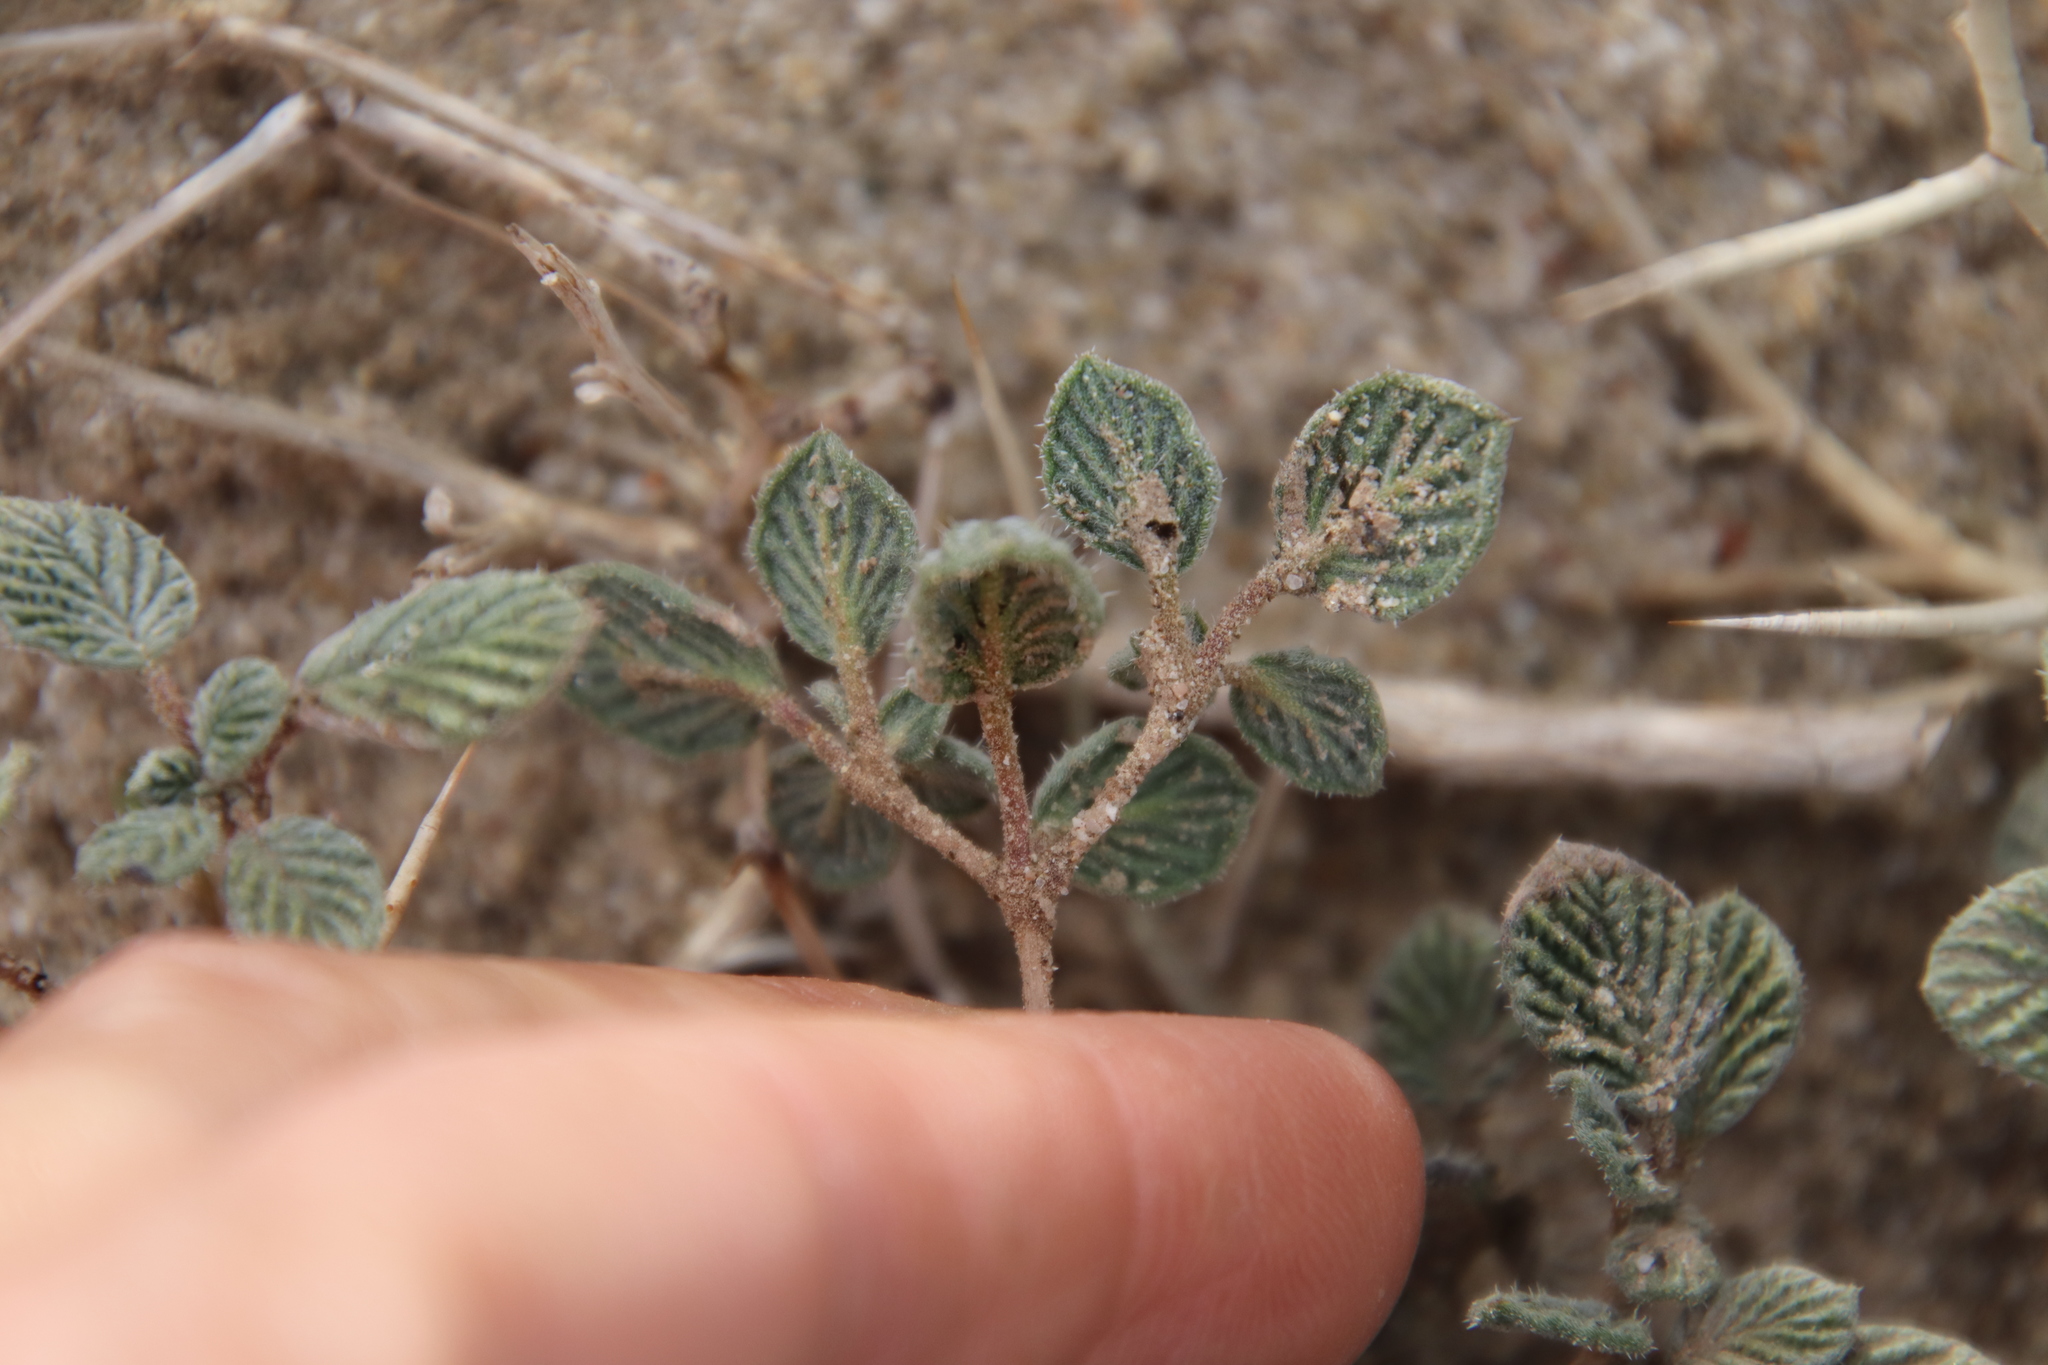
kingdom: Plantae
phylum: Tracheophyta
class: Magnoliopsida
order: Boraginales
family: Ehretiaceae
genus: Tiquilia
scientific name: Tiquilia plicata
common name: Fan-leaf tiquilia
